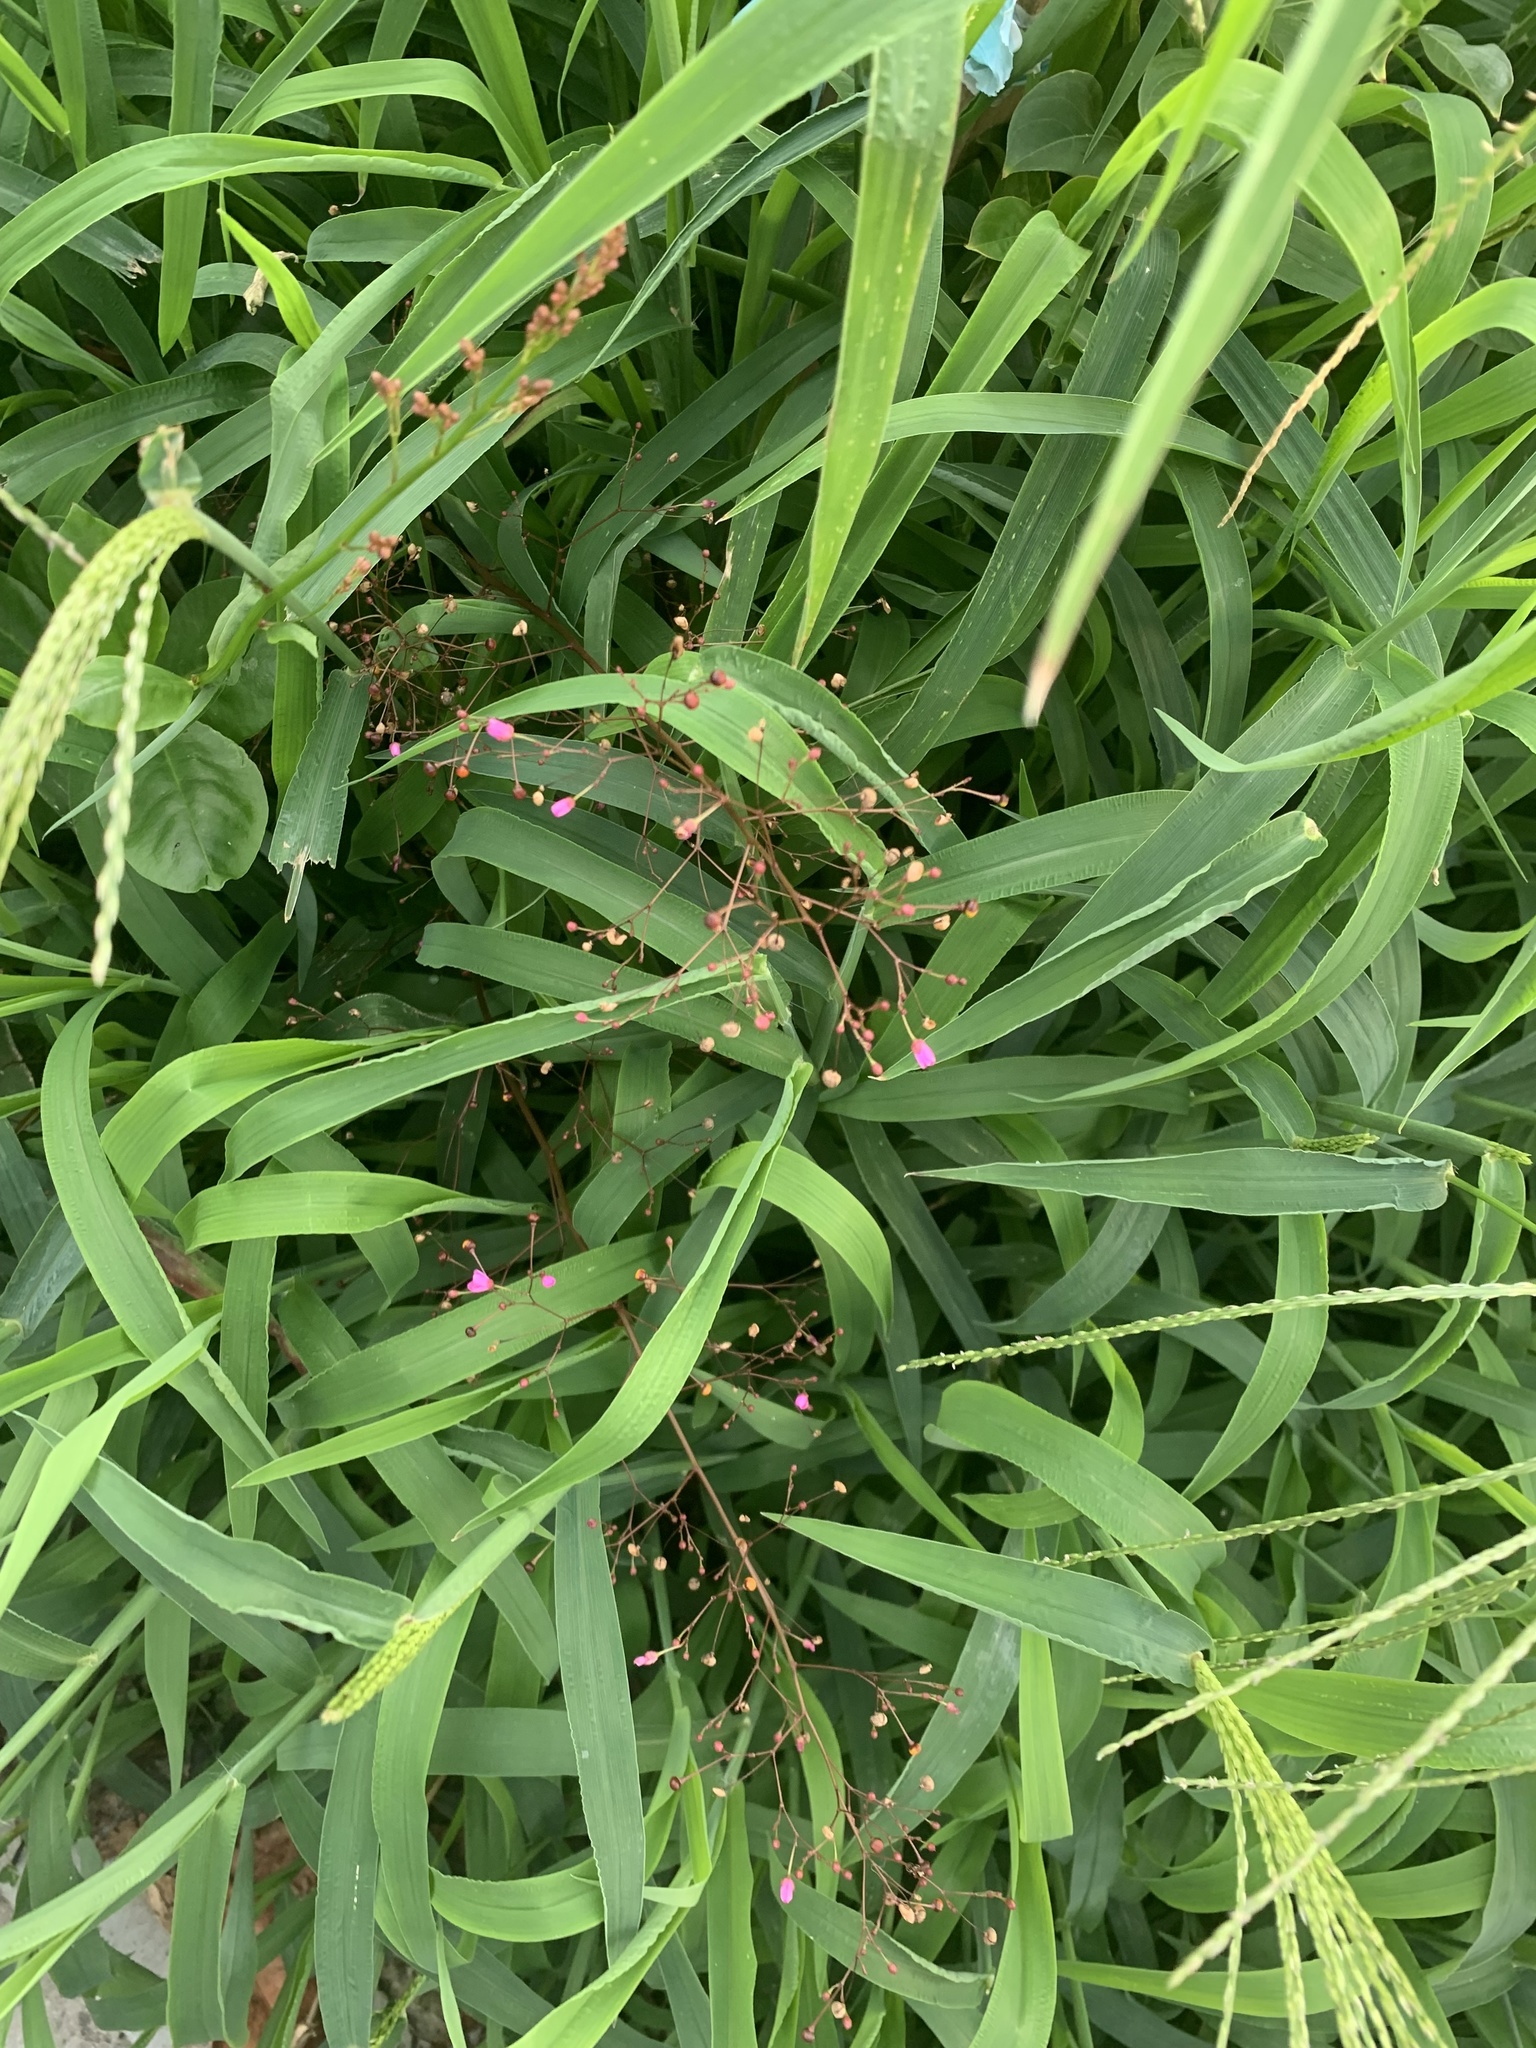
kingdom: Plantae
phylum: Tracheophyta
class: Magnoliopsida
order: Caryophyllales
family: Talinaceae
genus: Talinum
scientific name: Talinum paniculatum
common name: Jewels of opar
